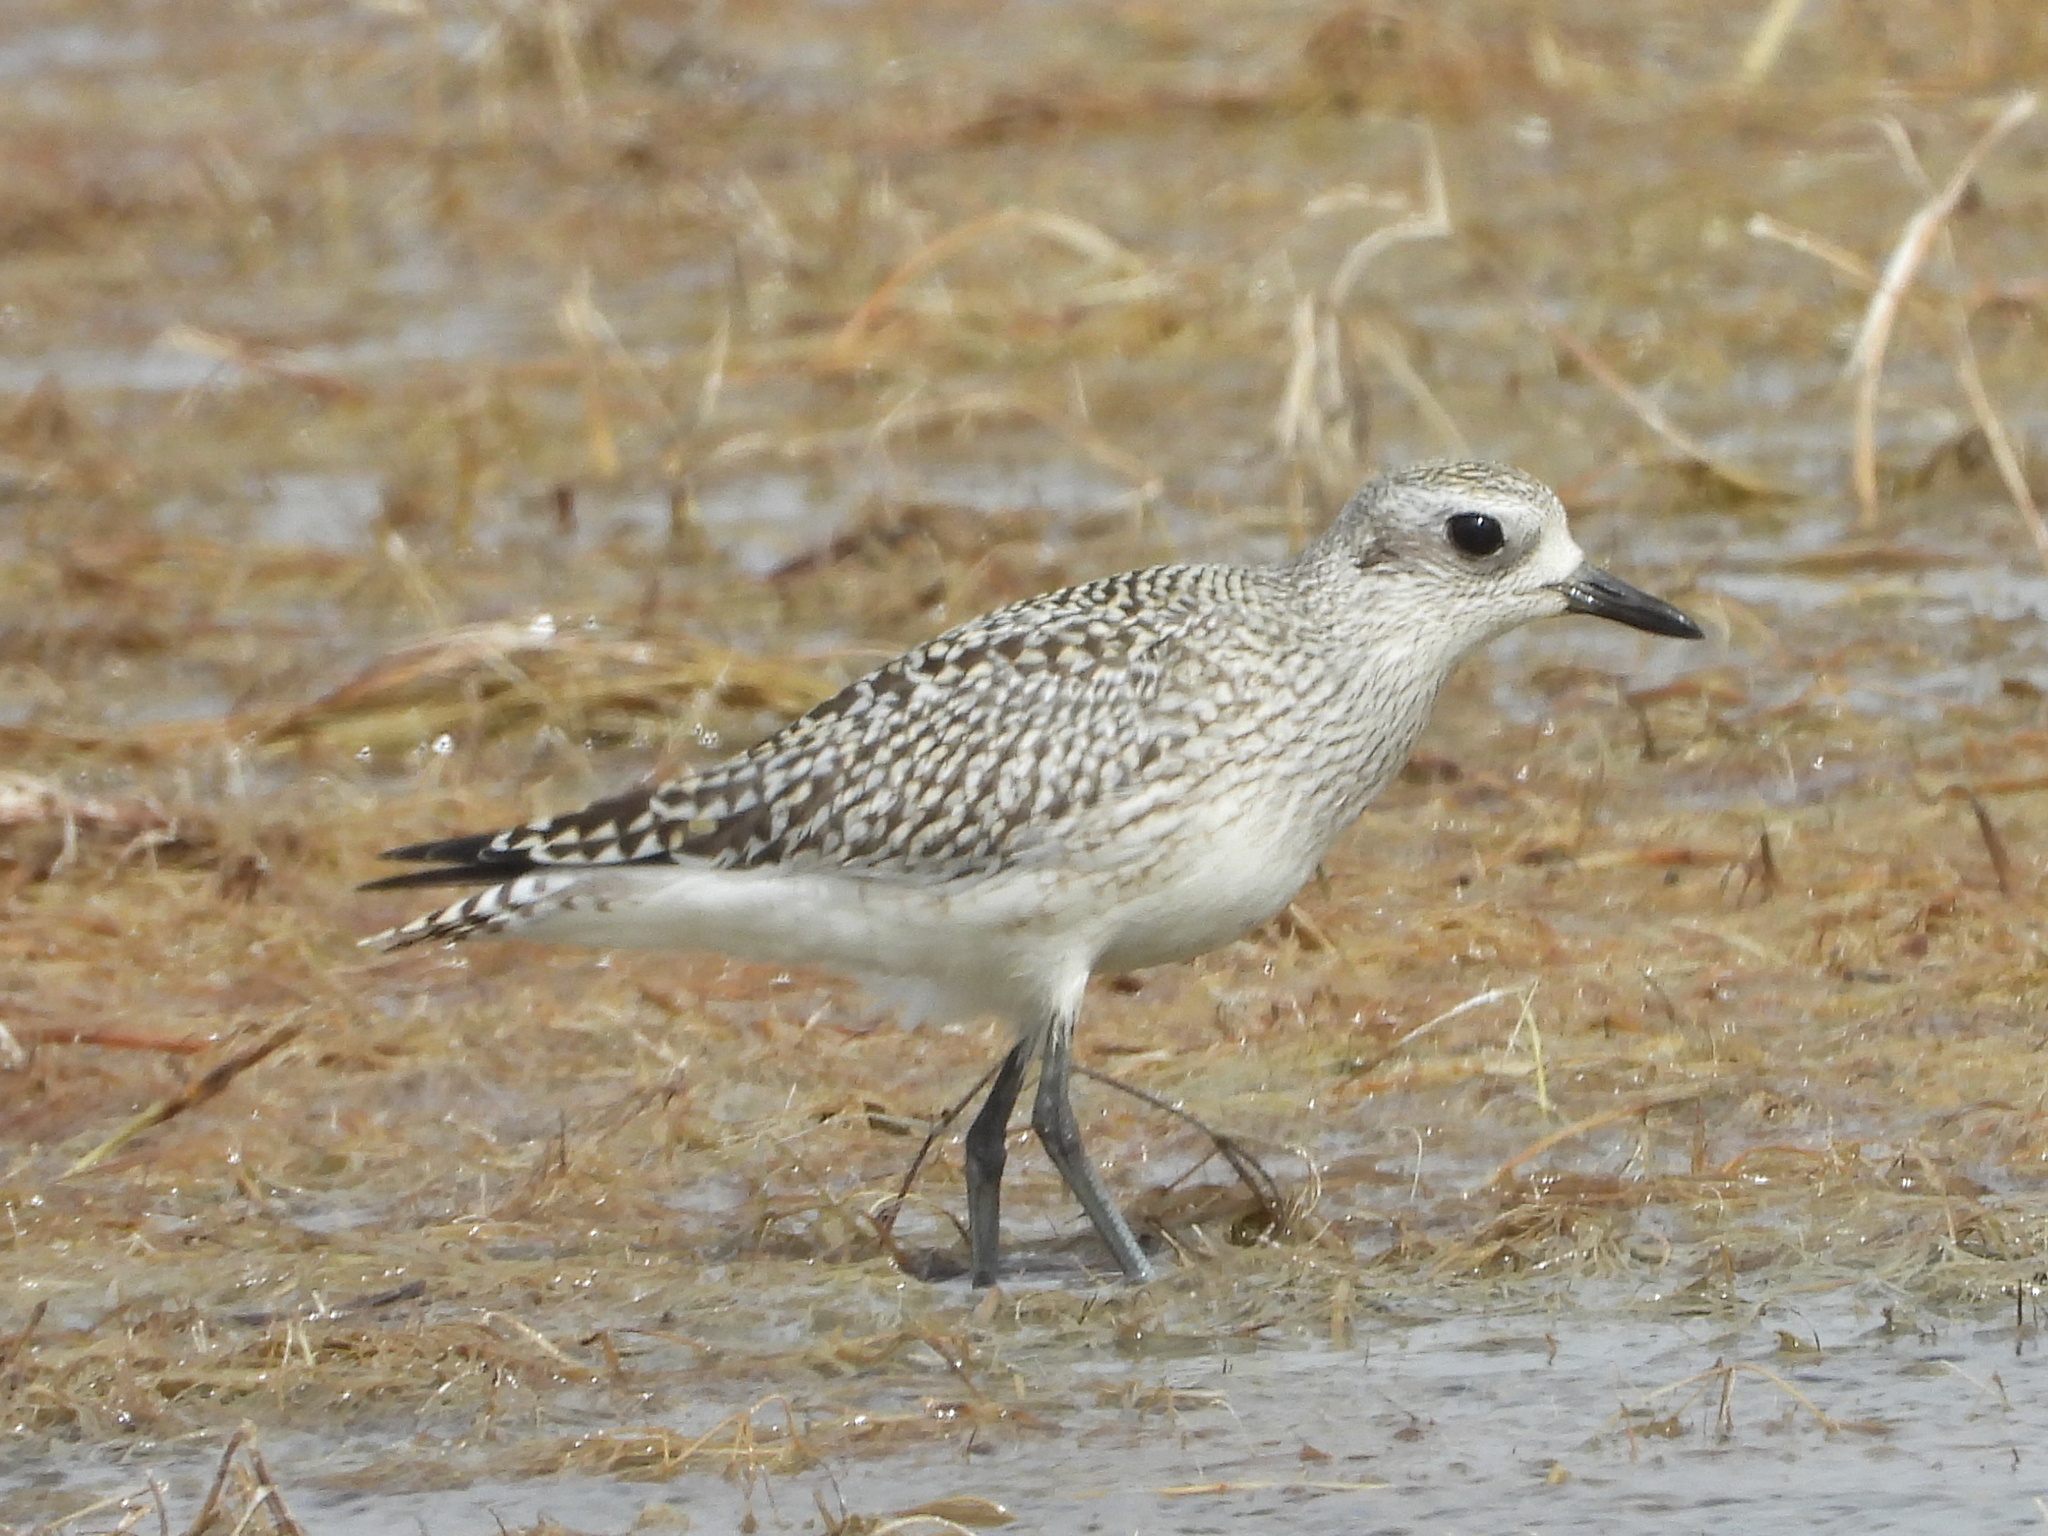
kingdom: Animalia
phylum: Chordata
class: Aves
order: Charadriiformes
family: Charadriidae
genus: Pluvialis
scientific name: Pluvialis squatarola
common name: Grey plover
